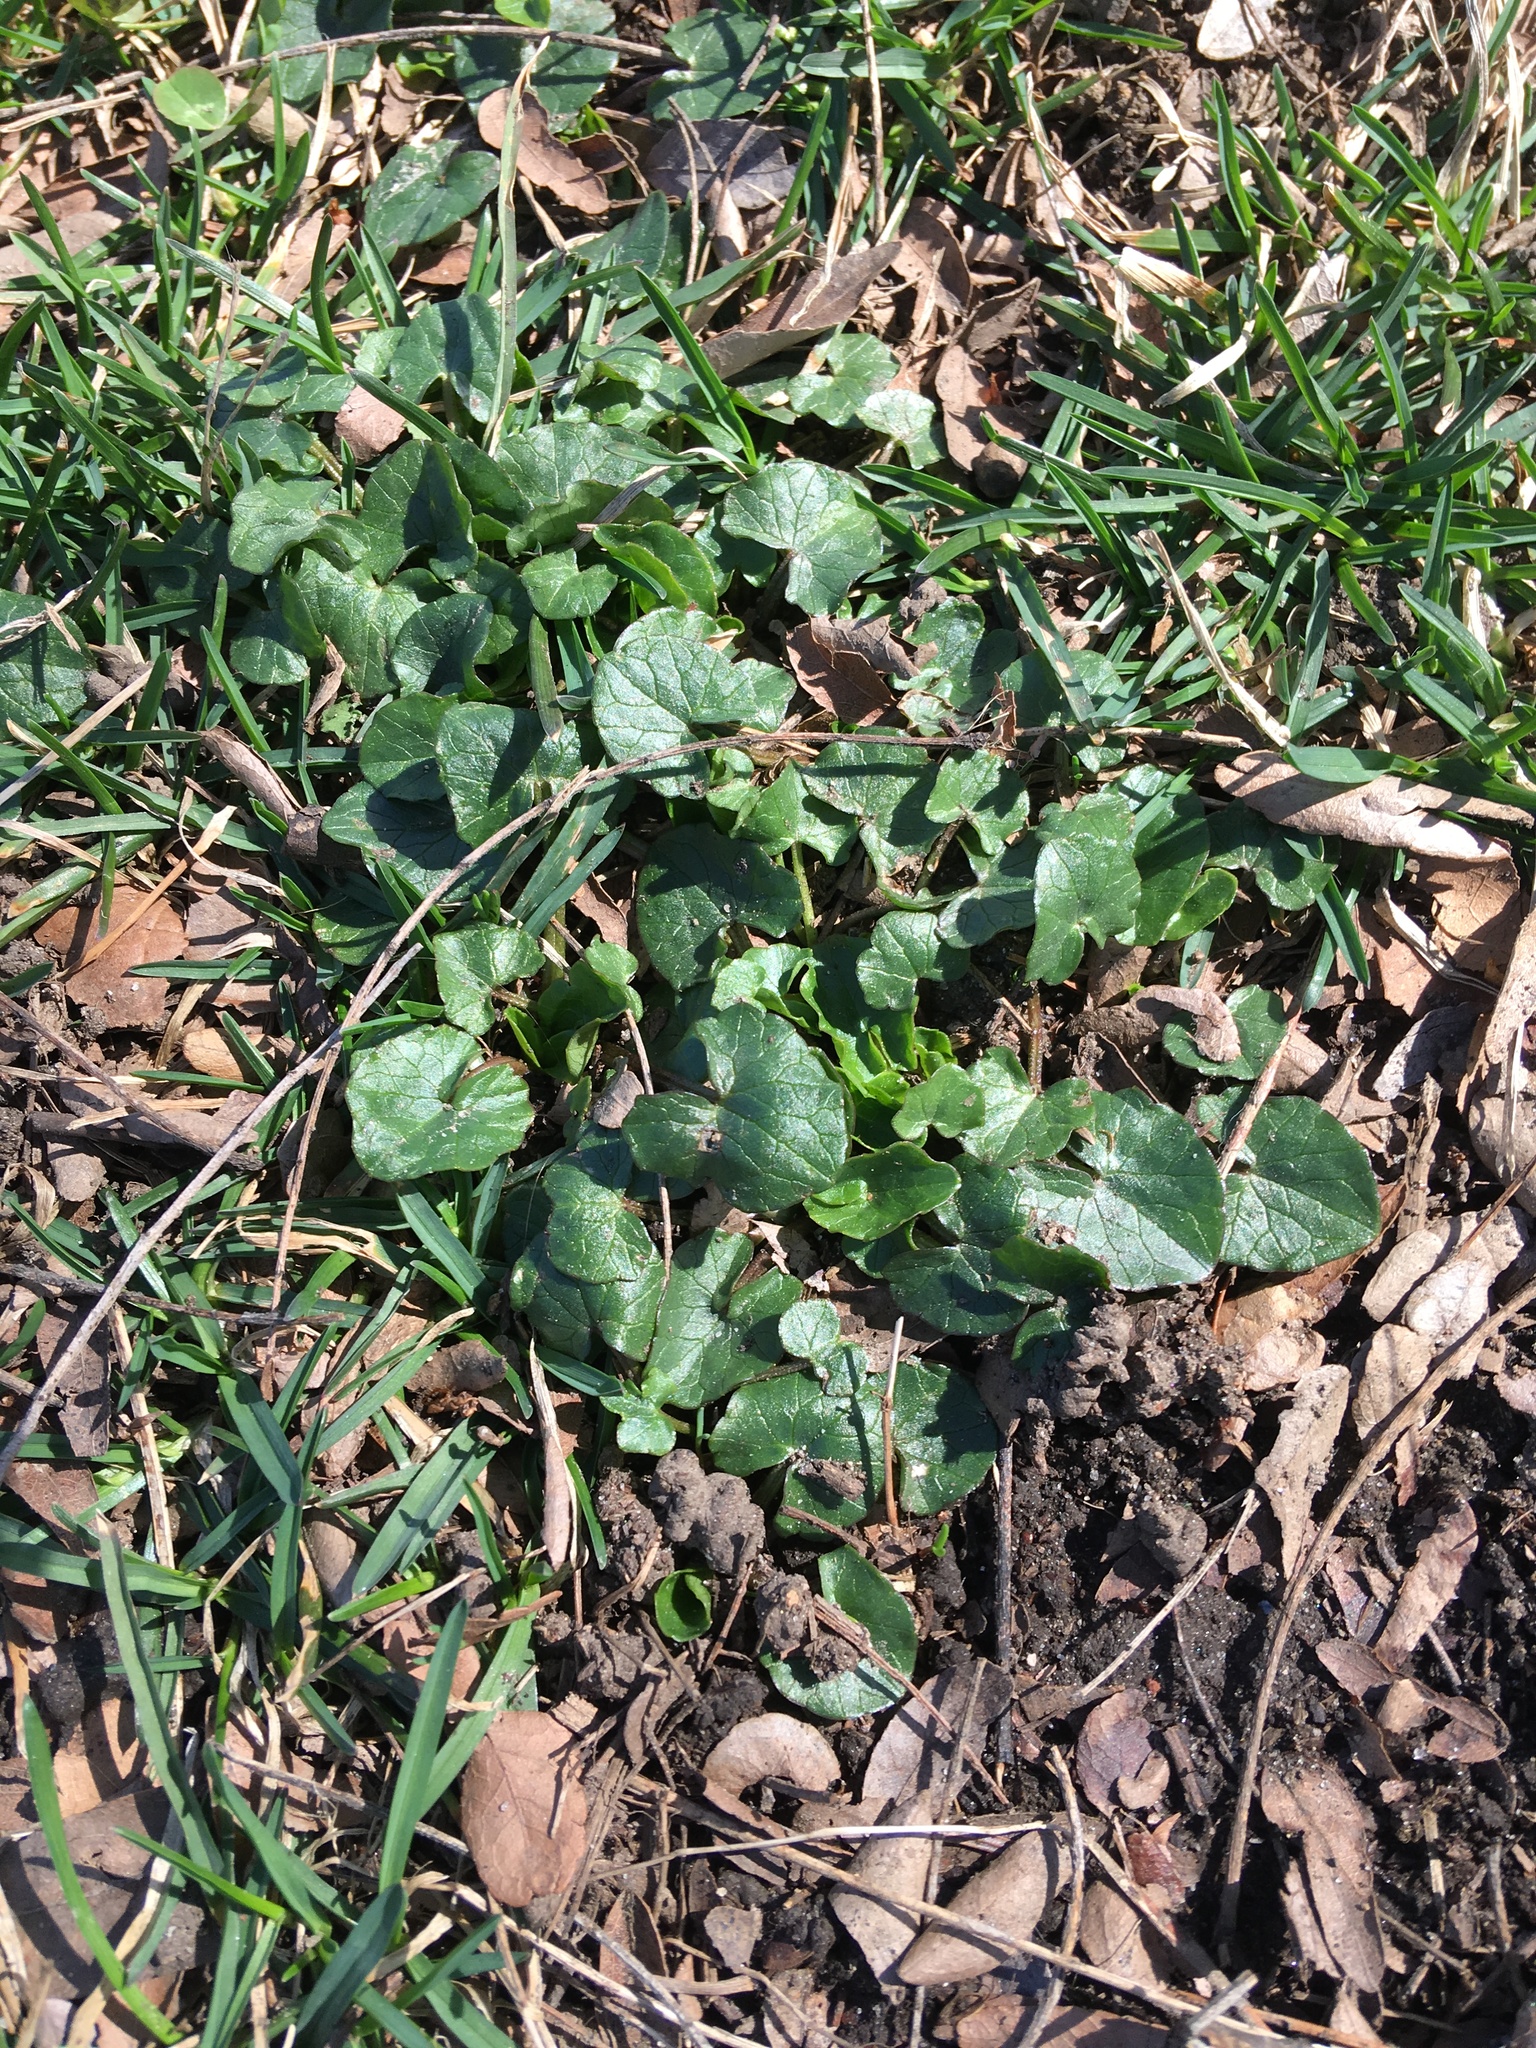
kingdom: Plantae
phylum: Tracheophyta
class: Magnoliopsida
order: Ranunculales
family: Ranunculaceae
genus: Ficaria
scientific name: Ficaria verna
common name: Lesser celandine
